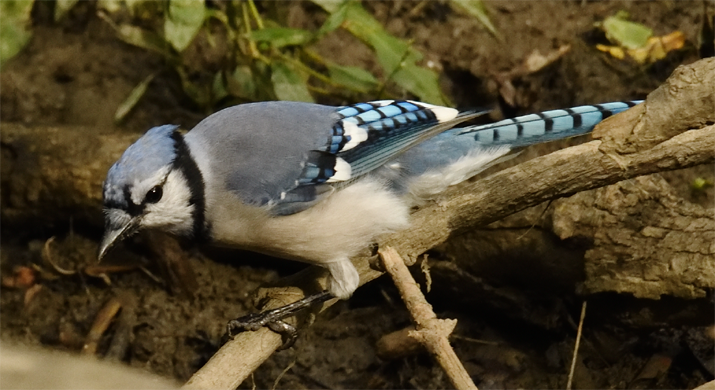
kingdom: Animalia
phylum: Chordata
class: Aves
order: Passeriformes
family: Corvidae
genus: Cyanocitta
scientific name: Cyanocitta cristata
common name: Blue jay
